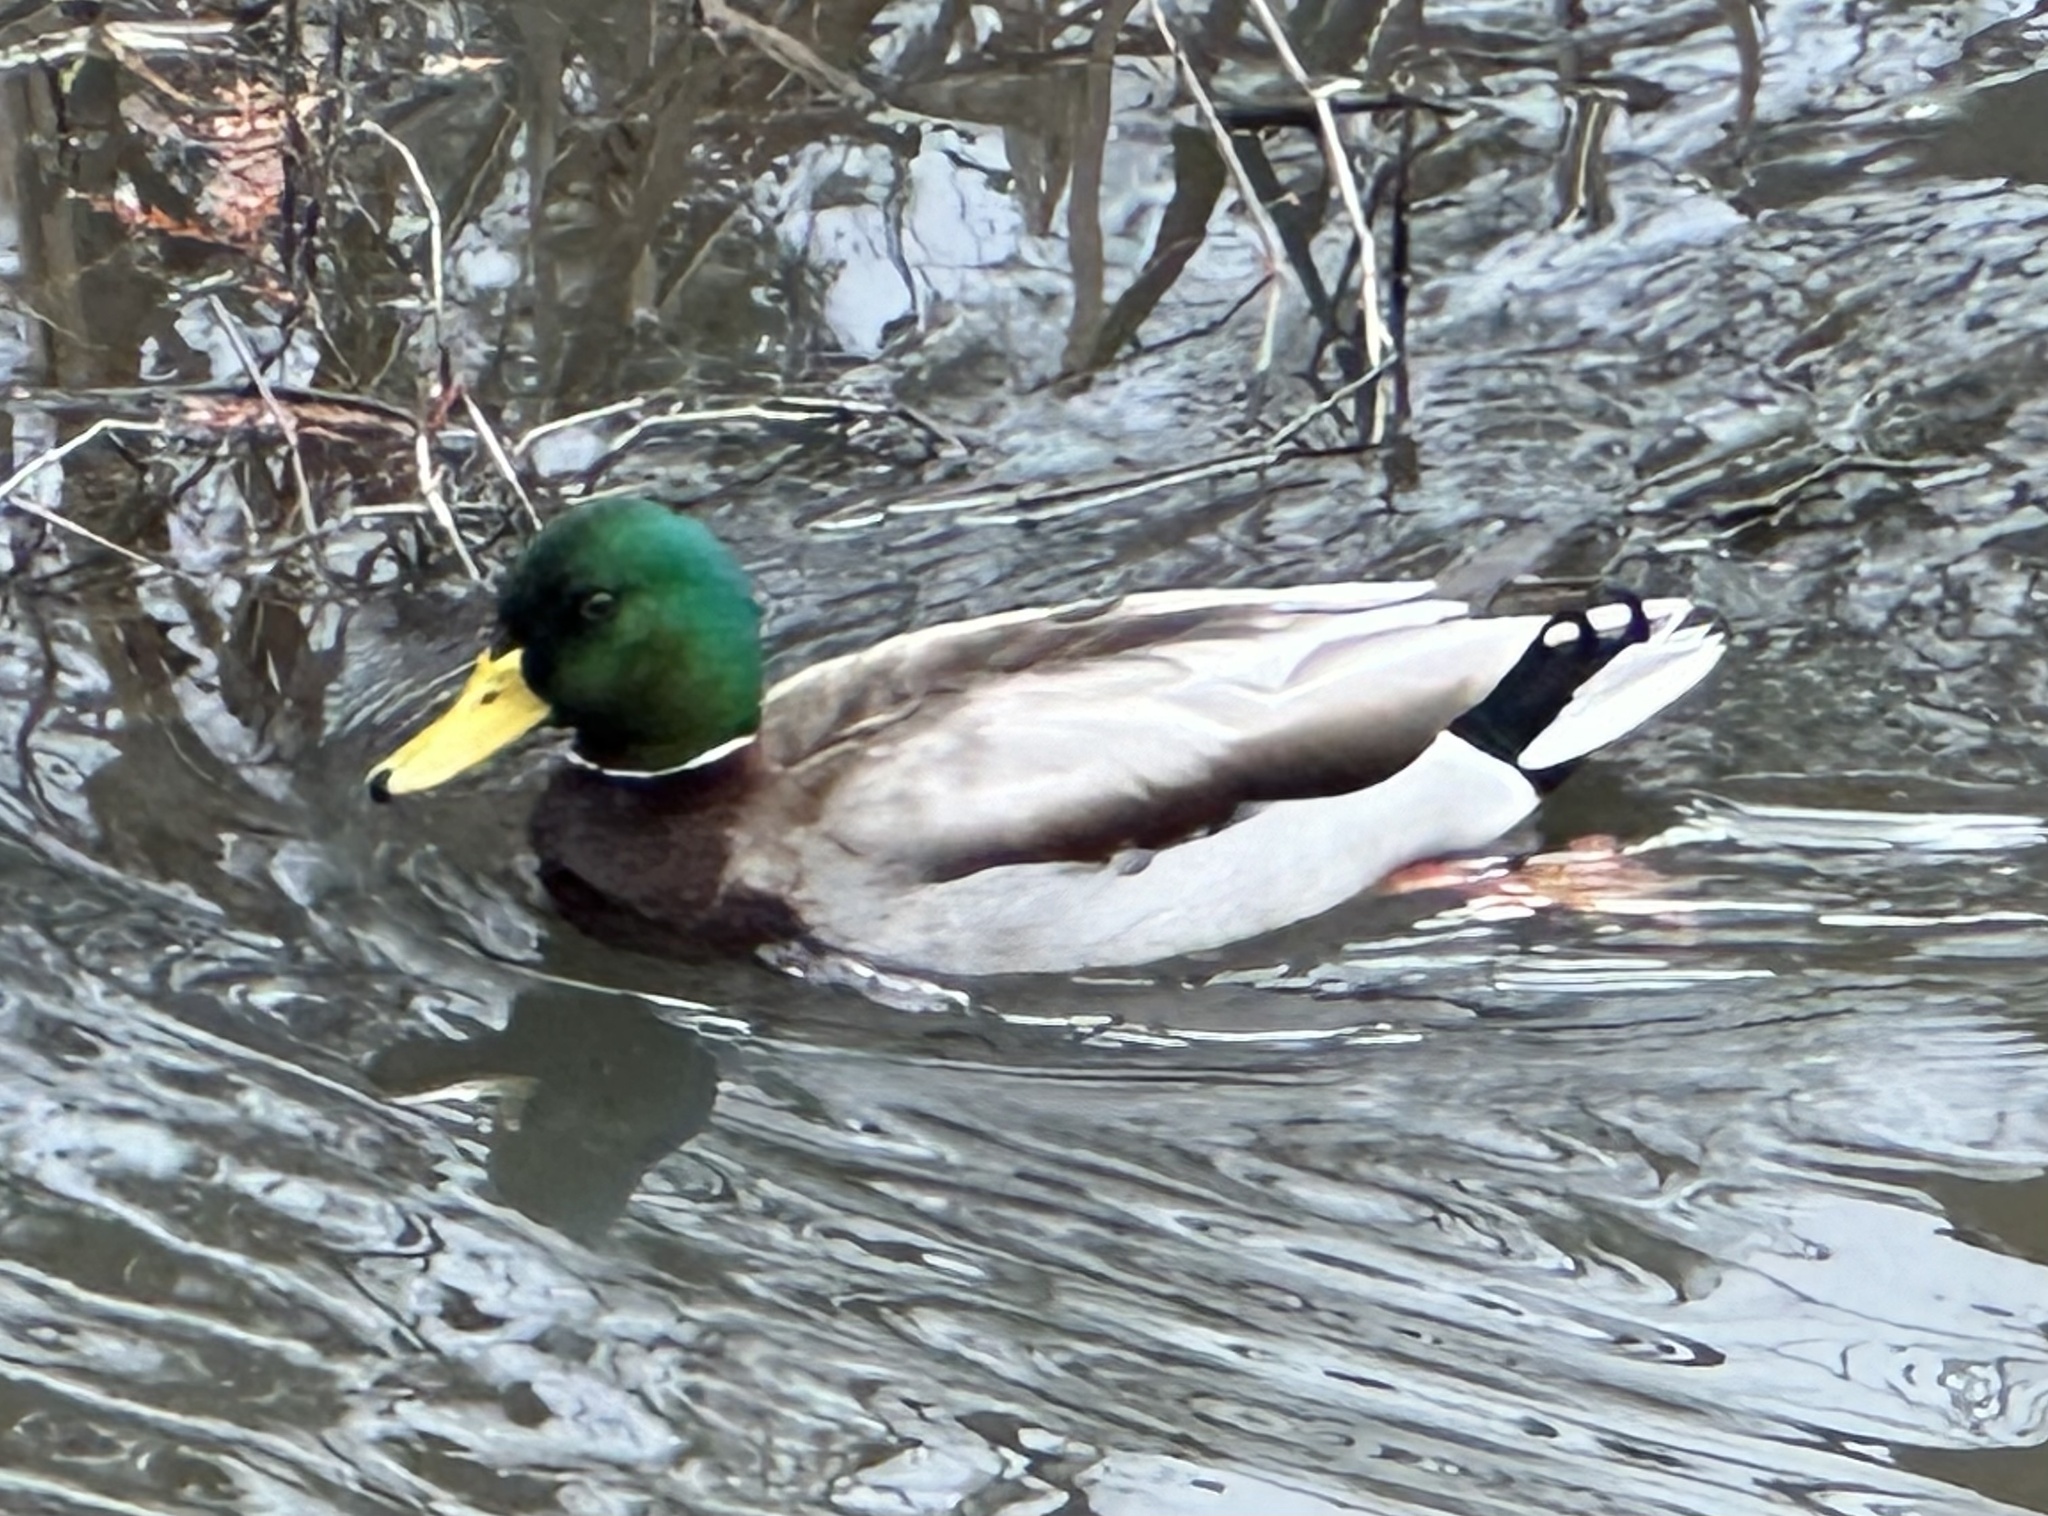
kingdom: Animalia
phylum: Chordata
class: Aves
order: Anseriformes
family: Anatidae
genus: Anas
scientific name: Anas platyrhynchos
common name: Mallard
